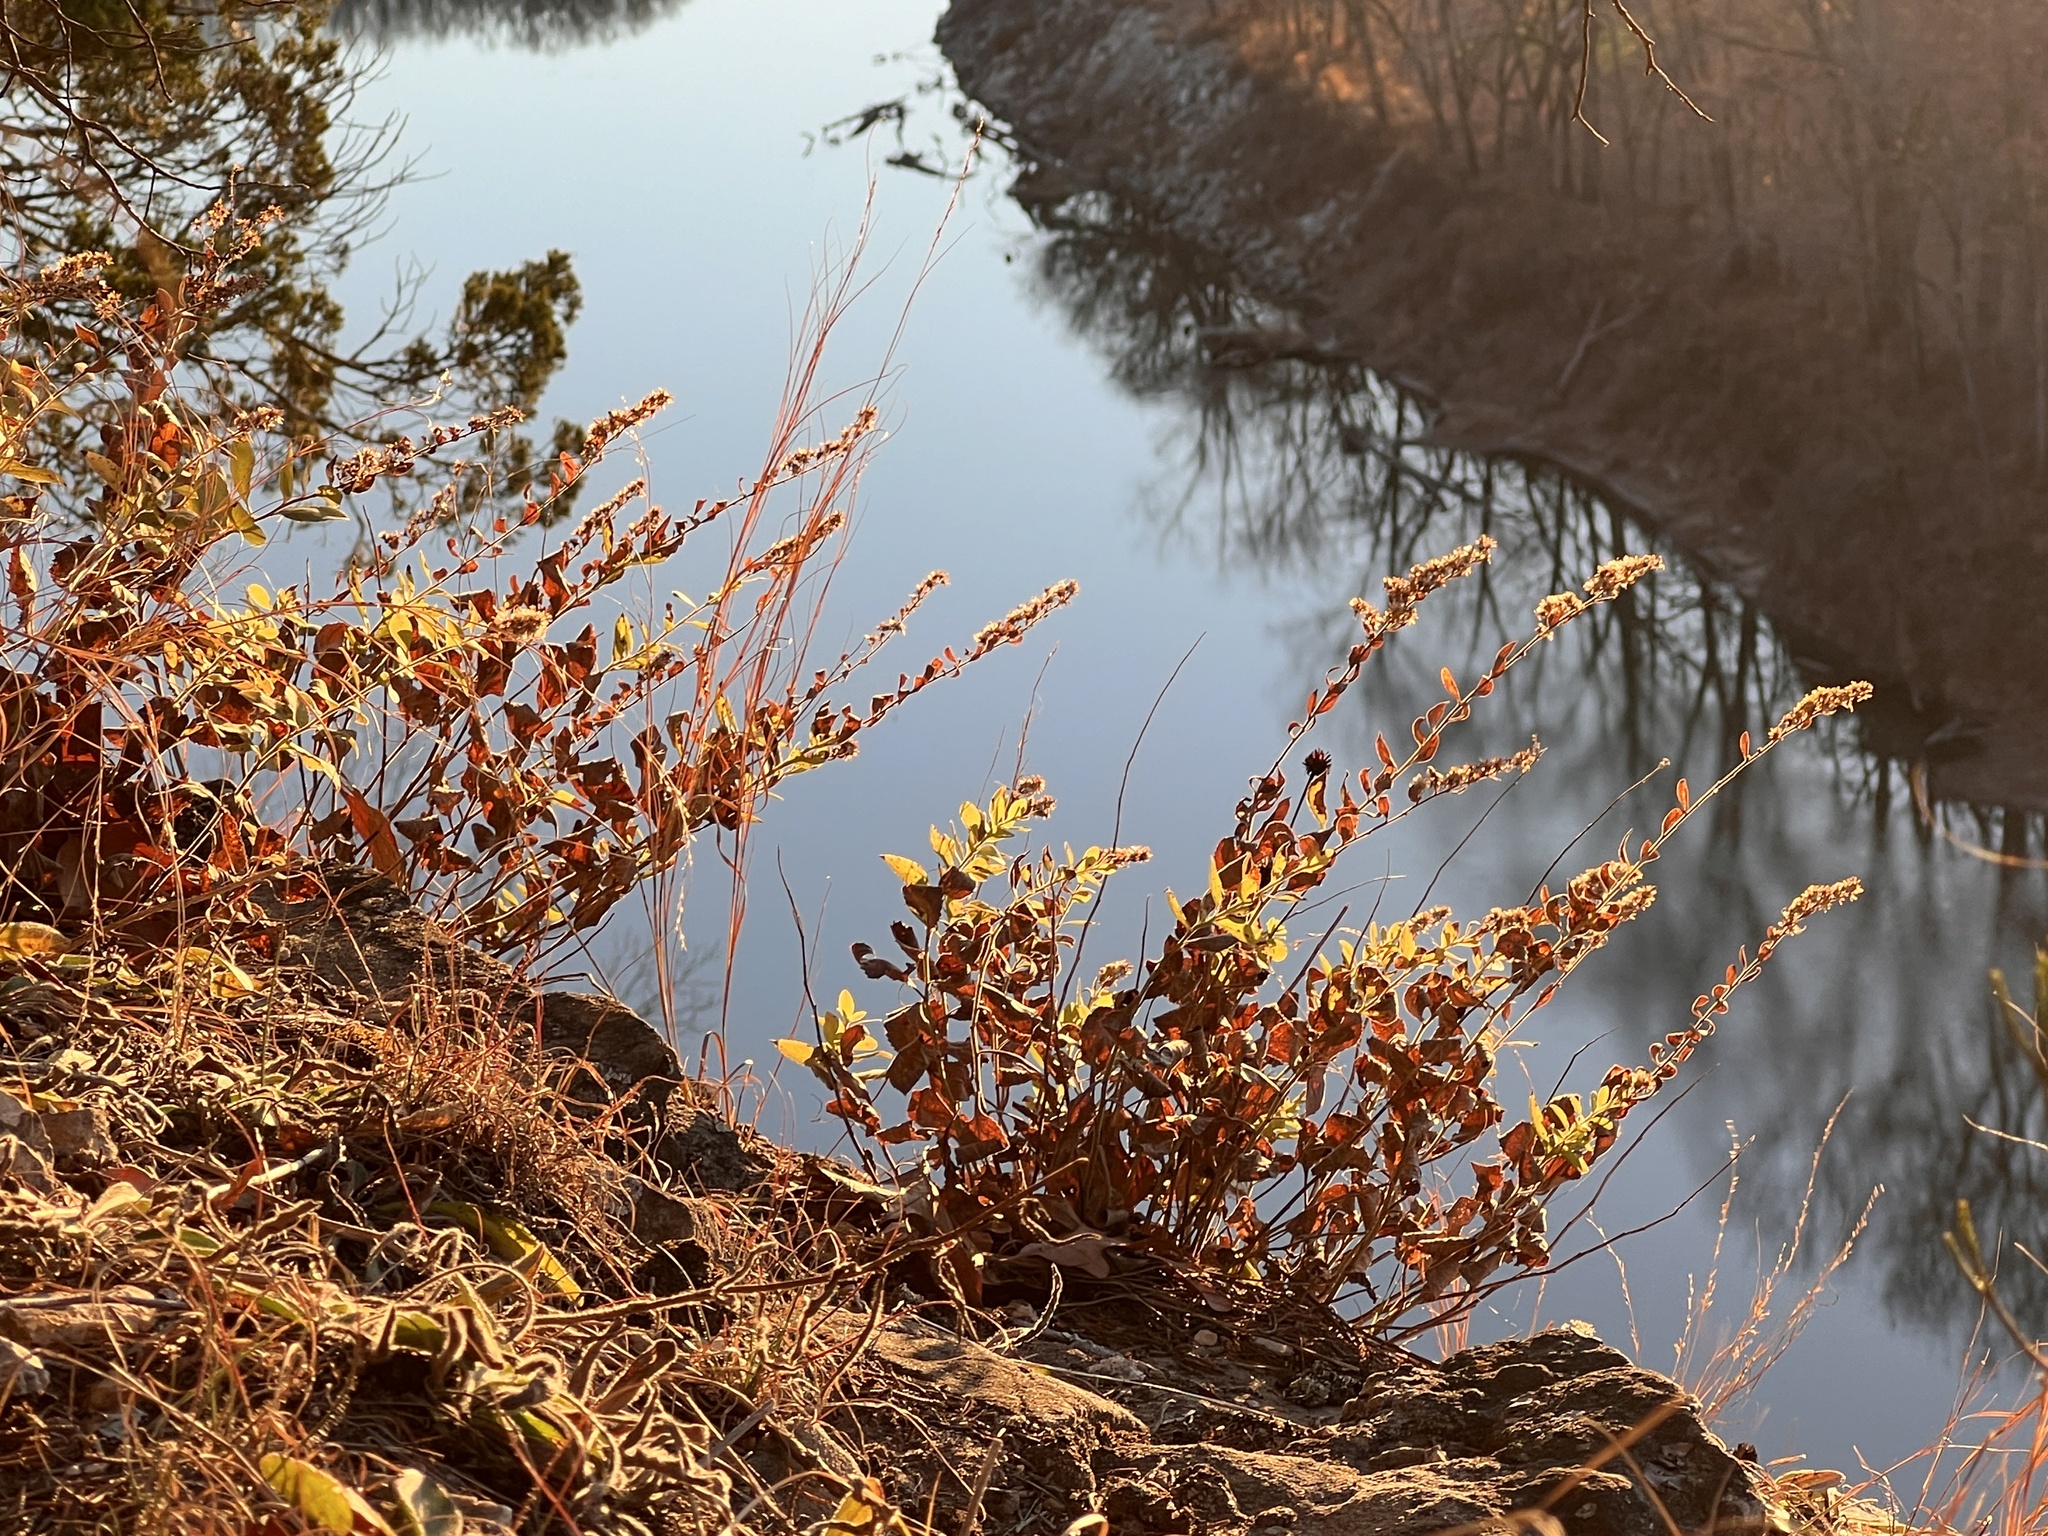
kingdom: Plantae
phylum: Tracheophyta
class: Magnoliopsida
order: Asterales
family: Asteraceae
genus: Solidago
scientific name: Solidago drummondii
